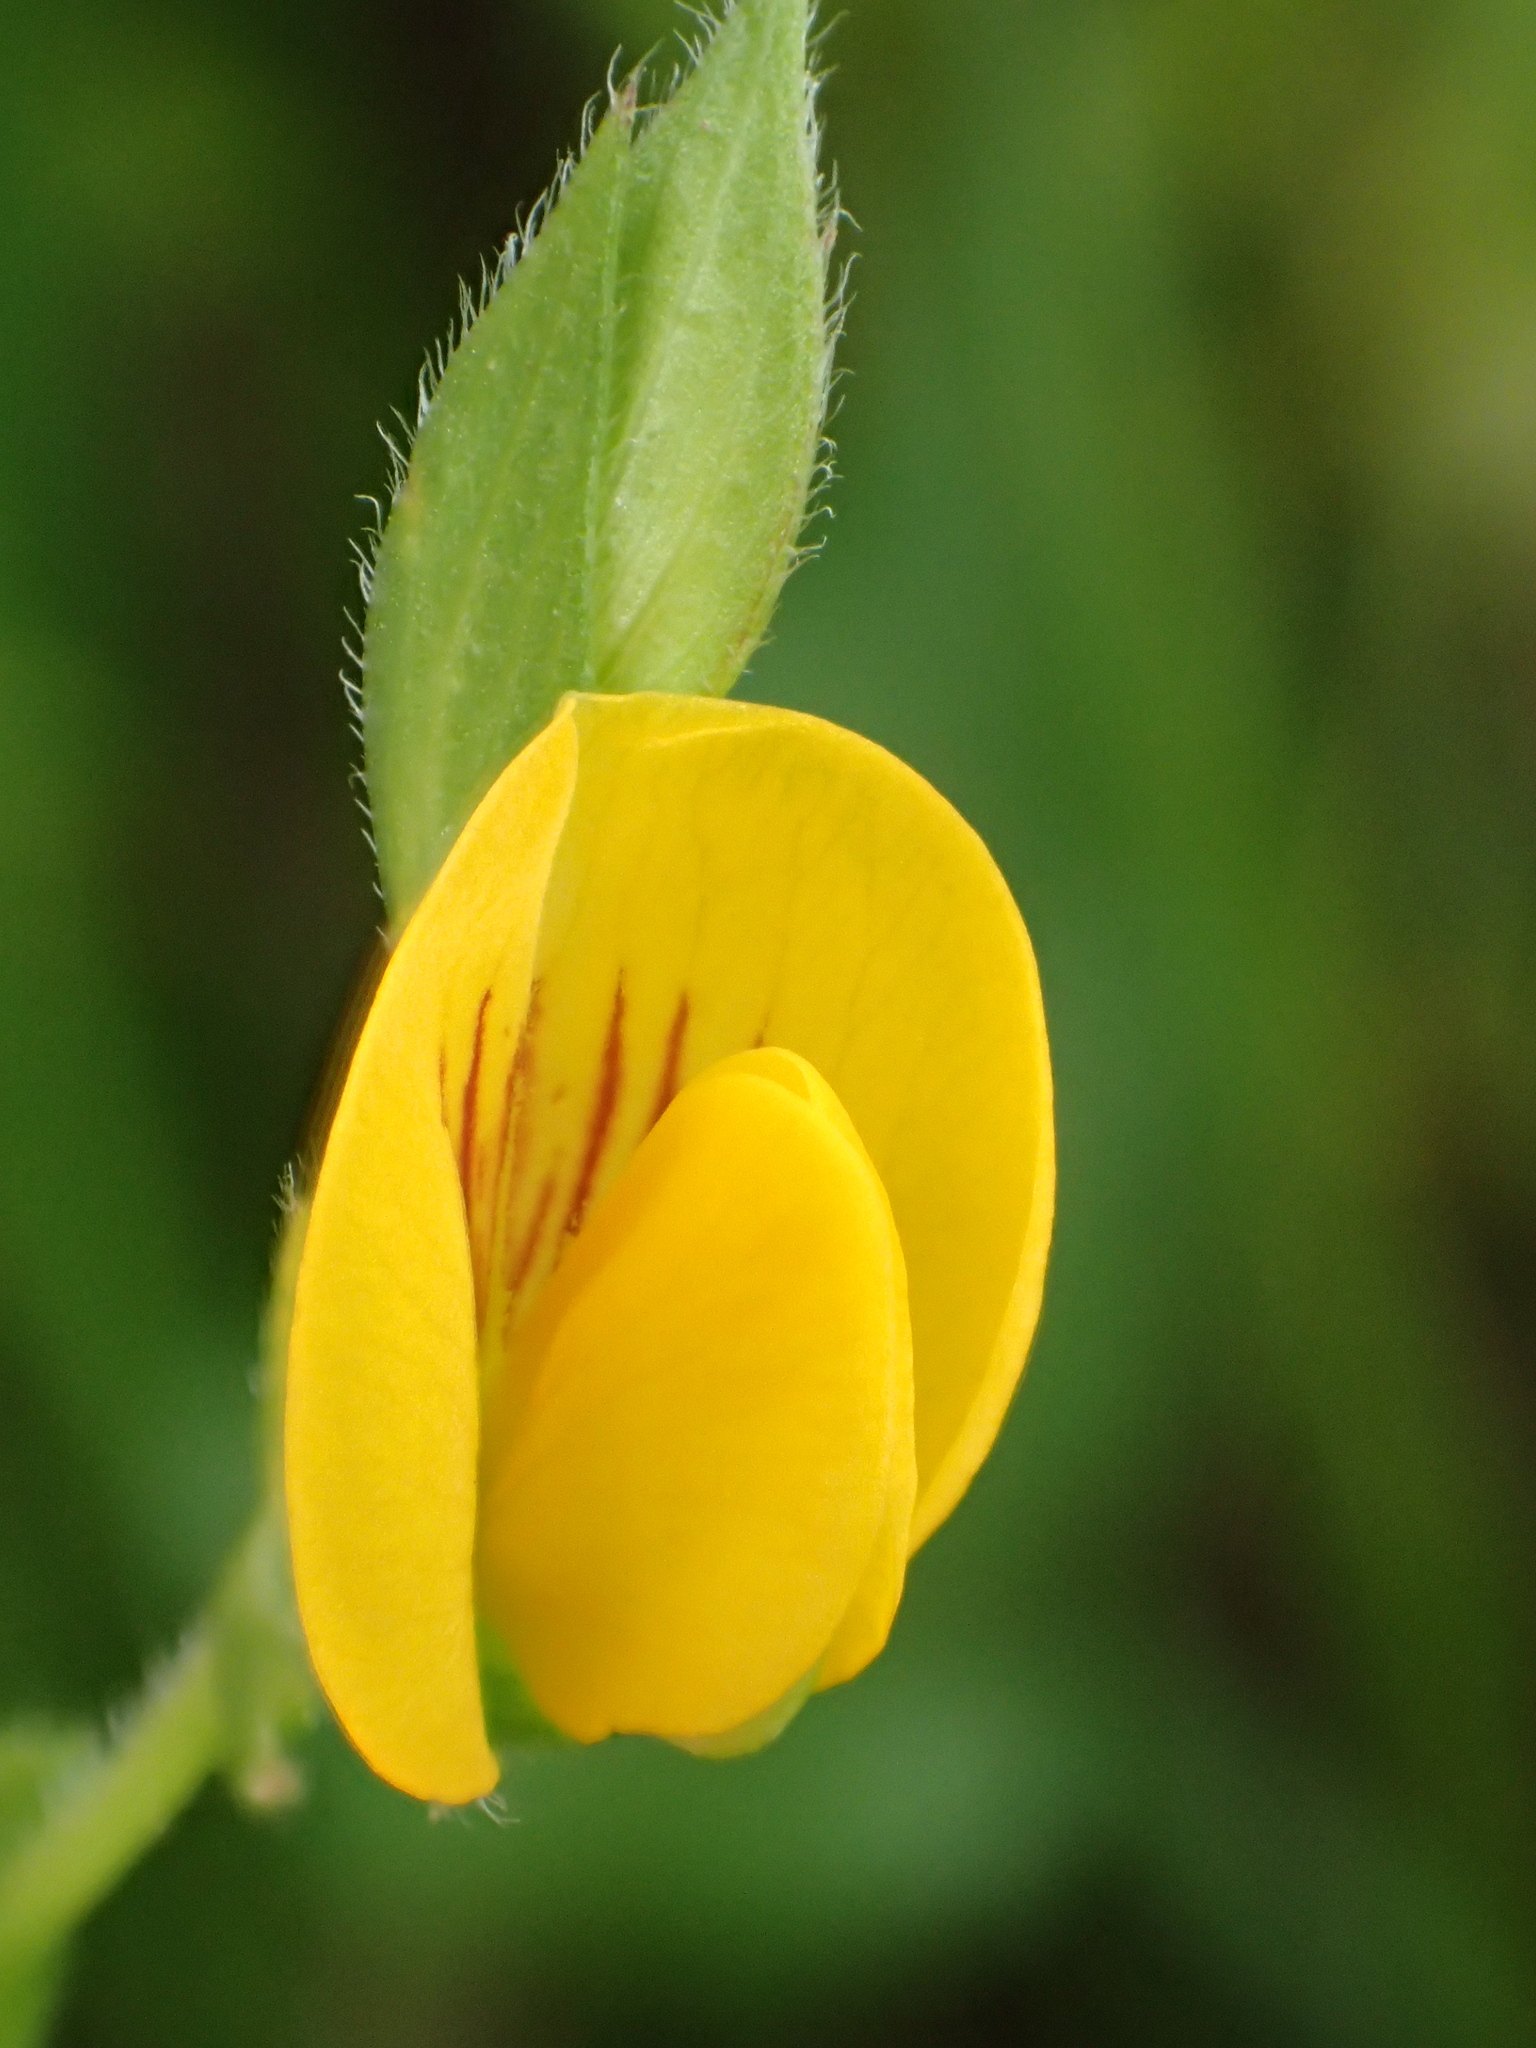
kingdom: Plantae
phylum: Tracheophyta
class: Magnoliopsida
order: Fabales
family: Fabaceae
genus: Zornia
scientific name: Zornia gibbosa
